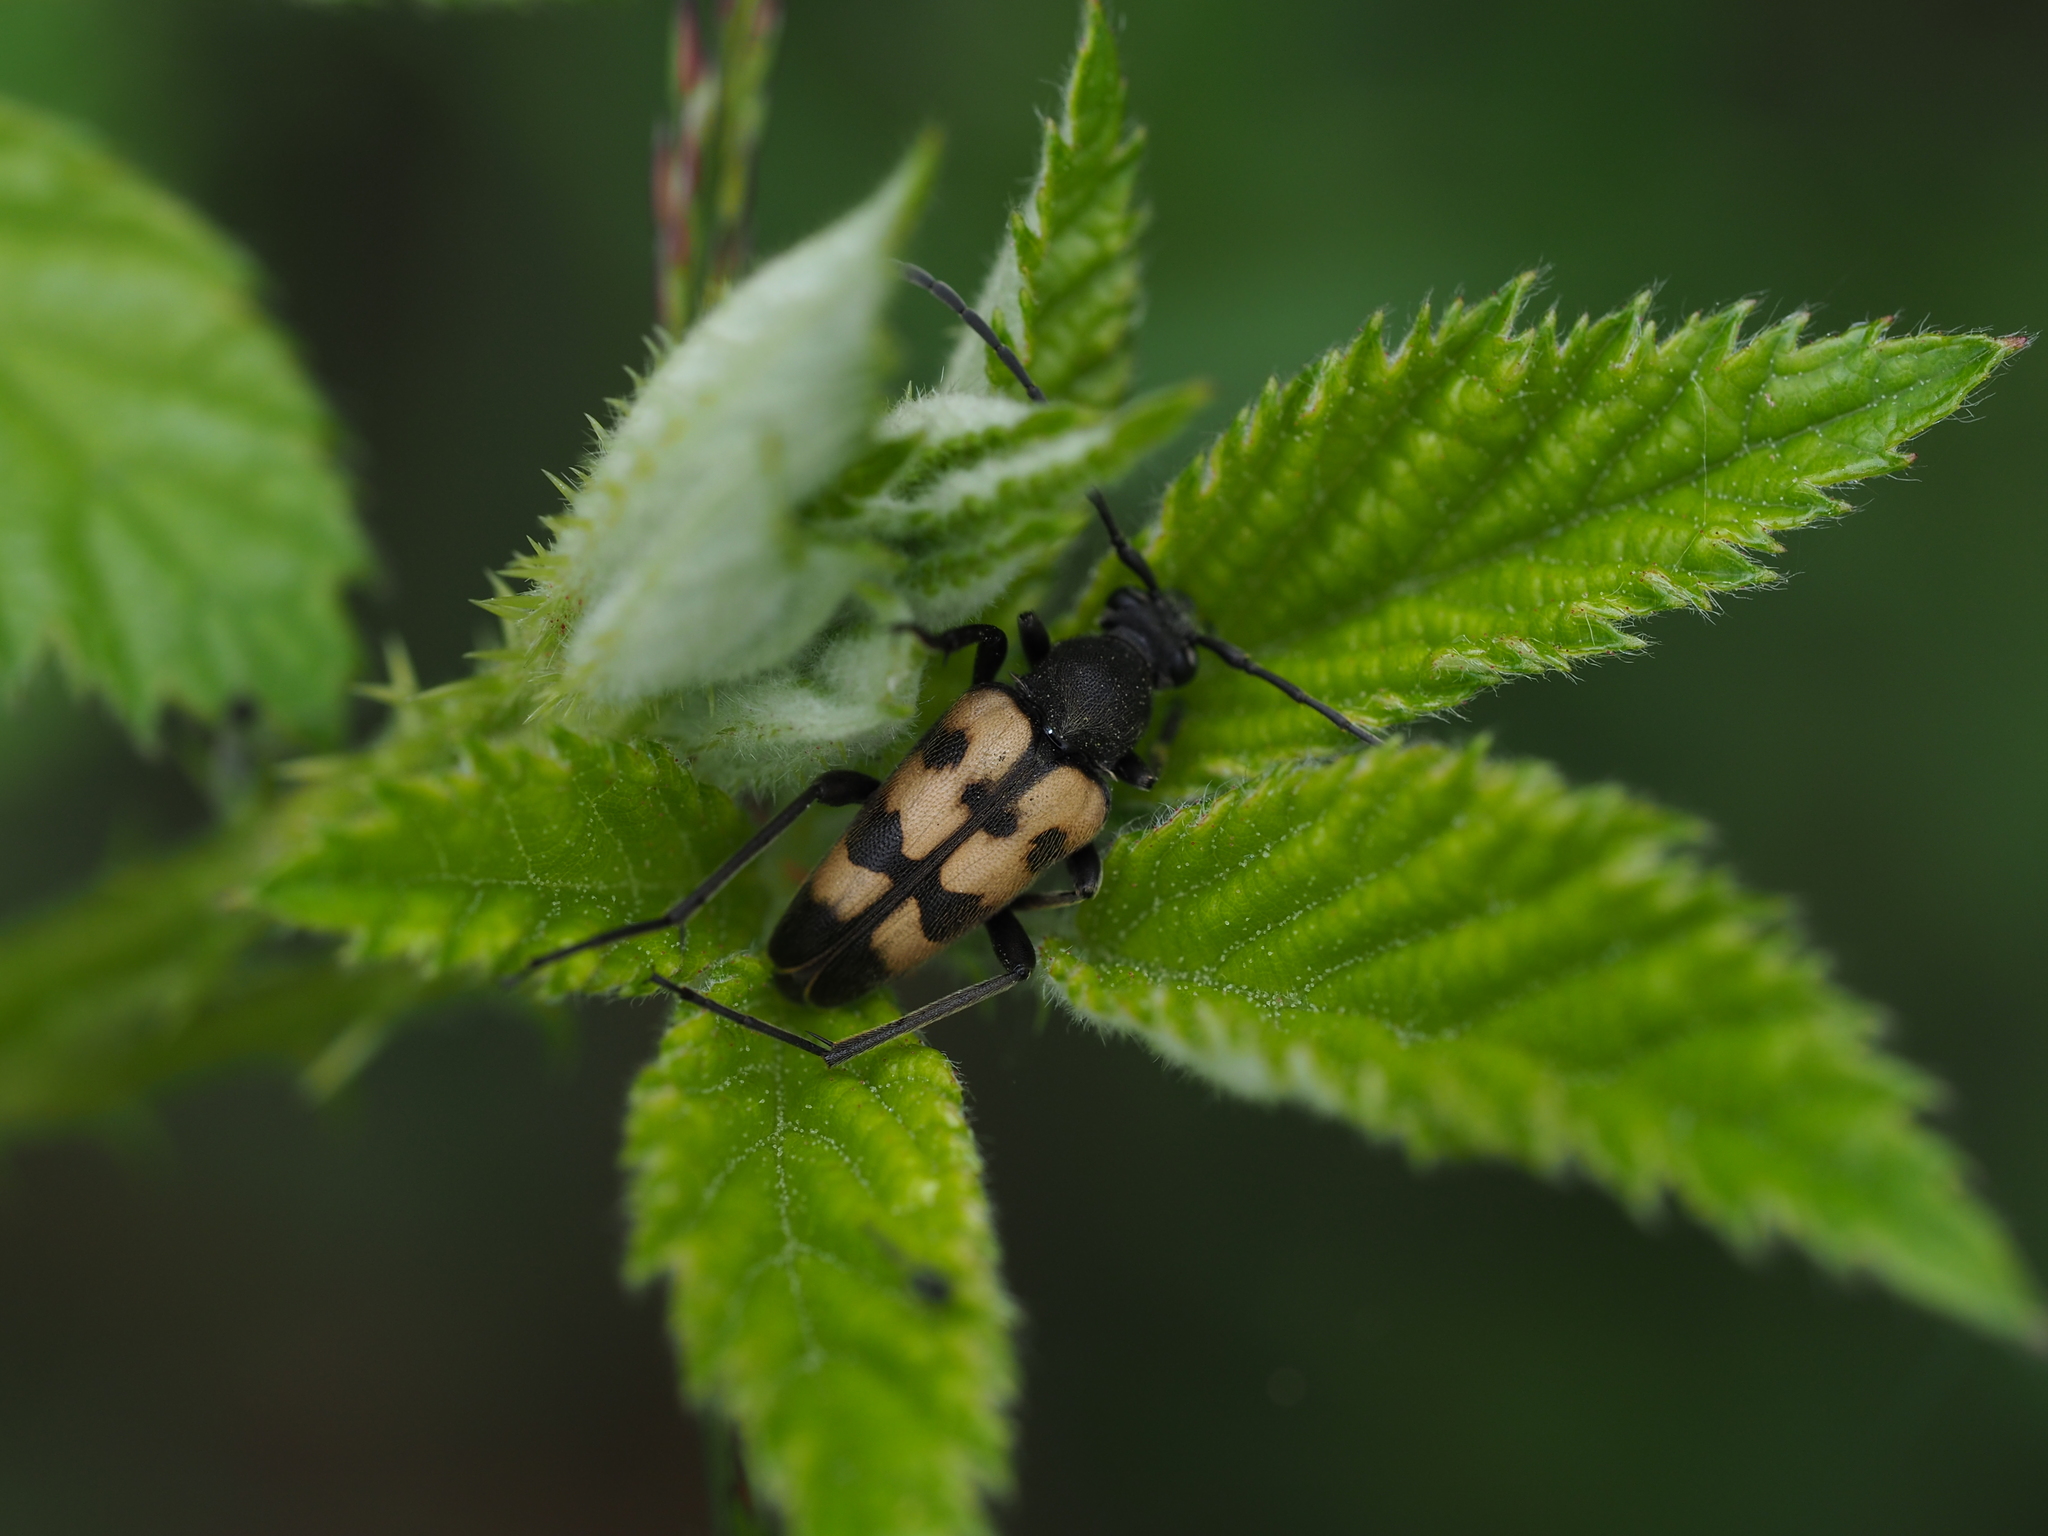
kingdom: Animalia
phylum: Arthropoda
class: Insecta
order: Coleoptera
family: Cerambycidae
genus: Pachytodes
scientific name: Pachytodes
